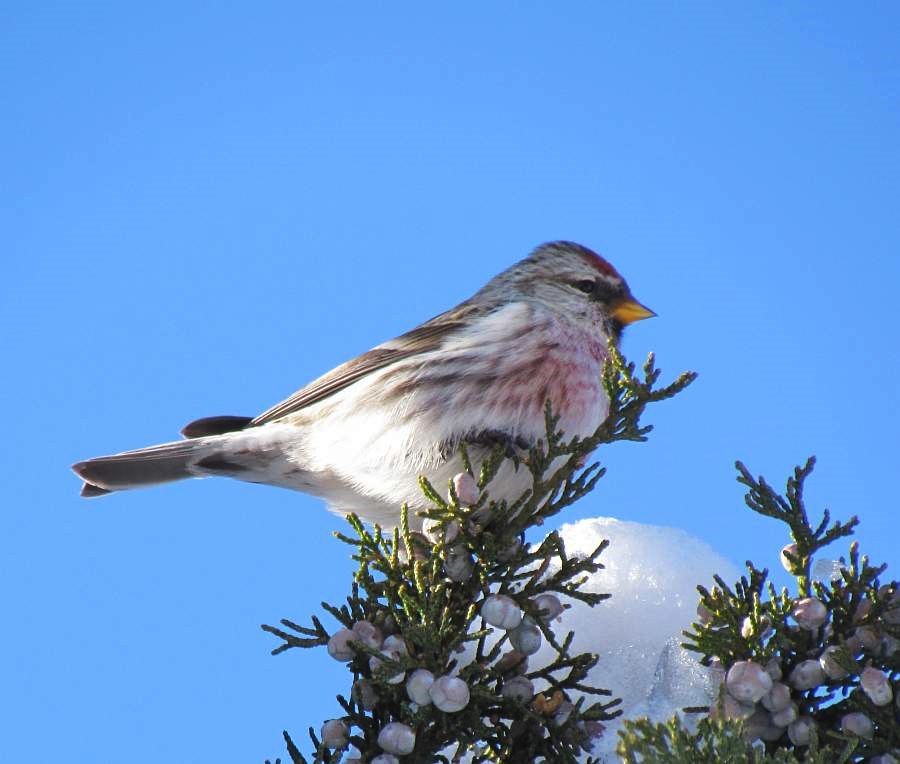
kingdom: Animalia
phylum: Chordata
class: Aves
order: Passeriformes
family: Fringillidae
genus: Acanthis
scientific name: Acanthis flammea
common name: Common redpoll
